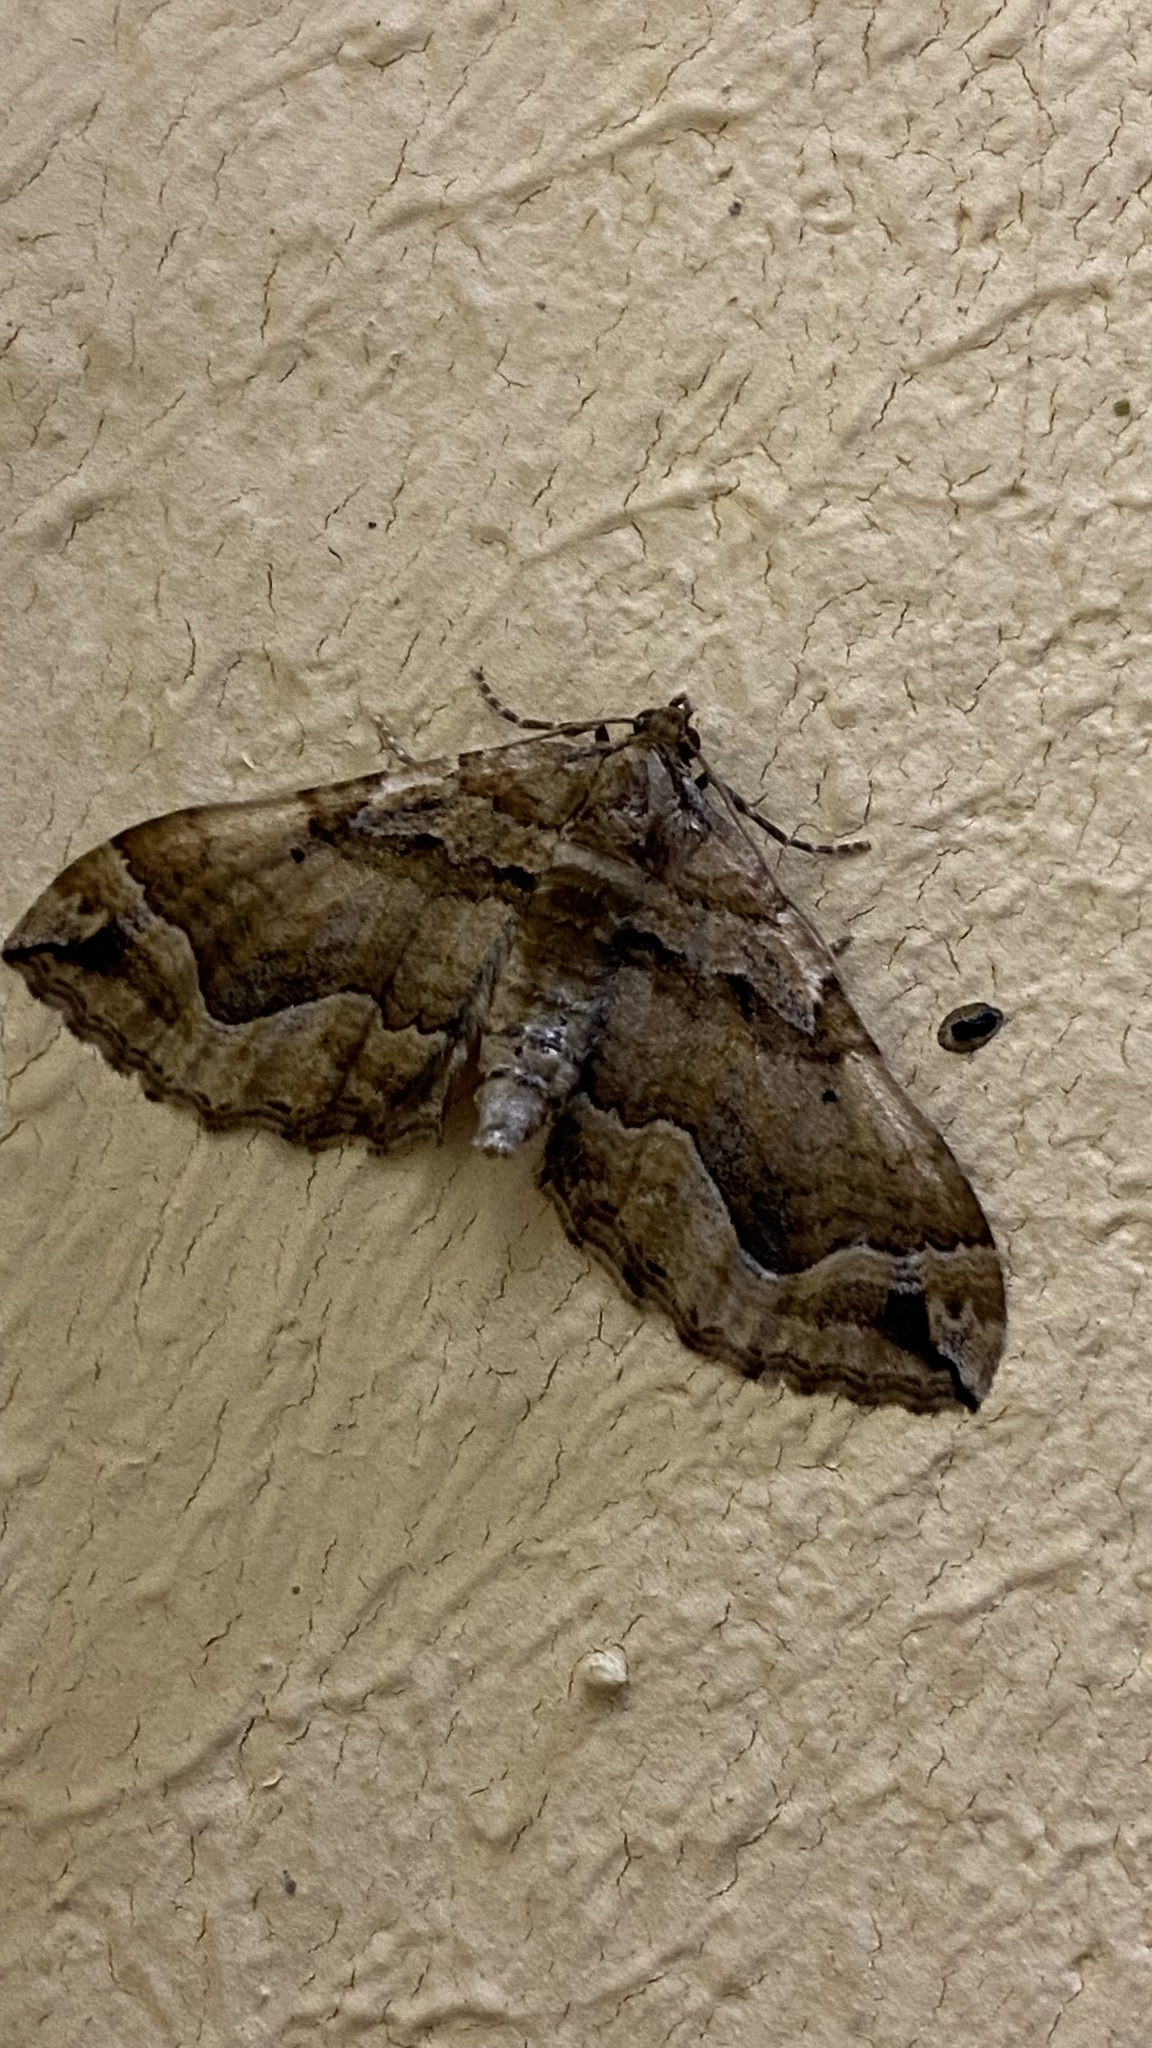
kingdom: Animalia
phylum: Arthropoda
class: Insecta
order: Lepidoptera
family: Geometridae
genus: Pelurga
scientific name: Pelurga comitata
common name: Dark spinach
